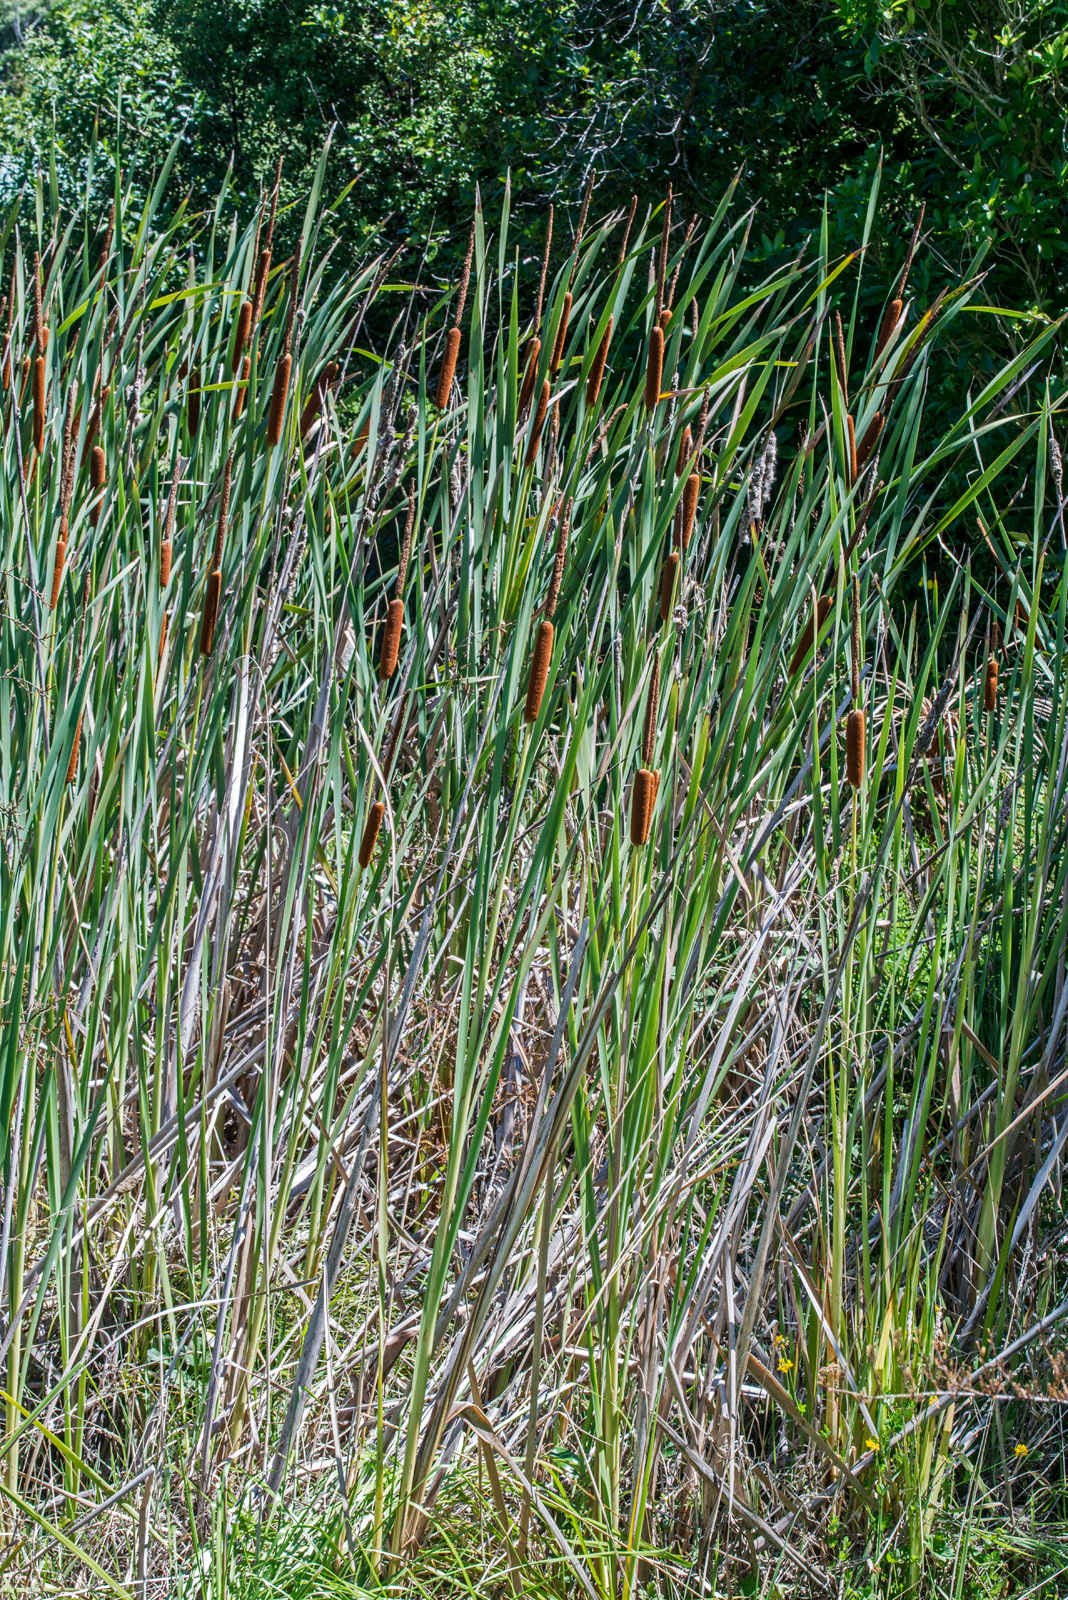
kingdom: Plantae
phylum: Tracheophyta
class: Liliopsida
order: Poales
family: Typhaceae
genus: Typha
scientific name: Typha orientalis
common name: Bullrush
